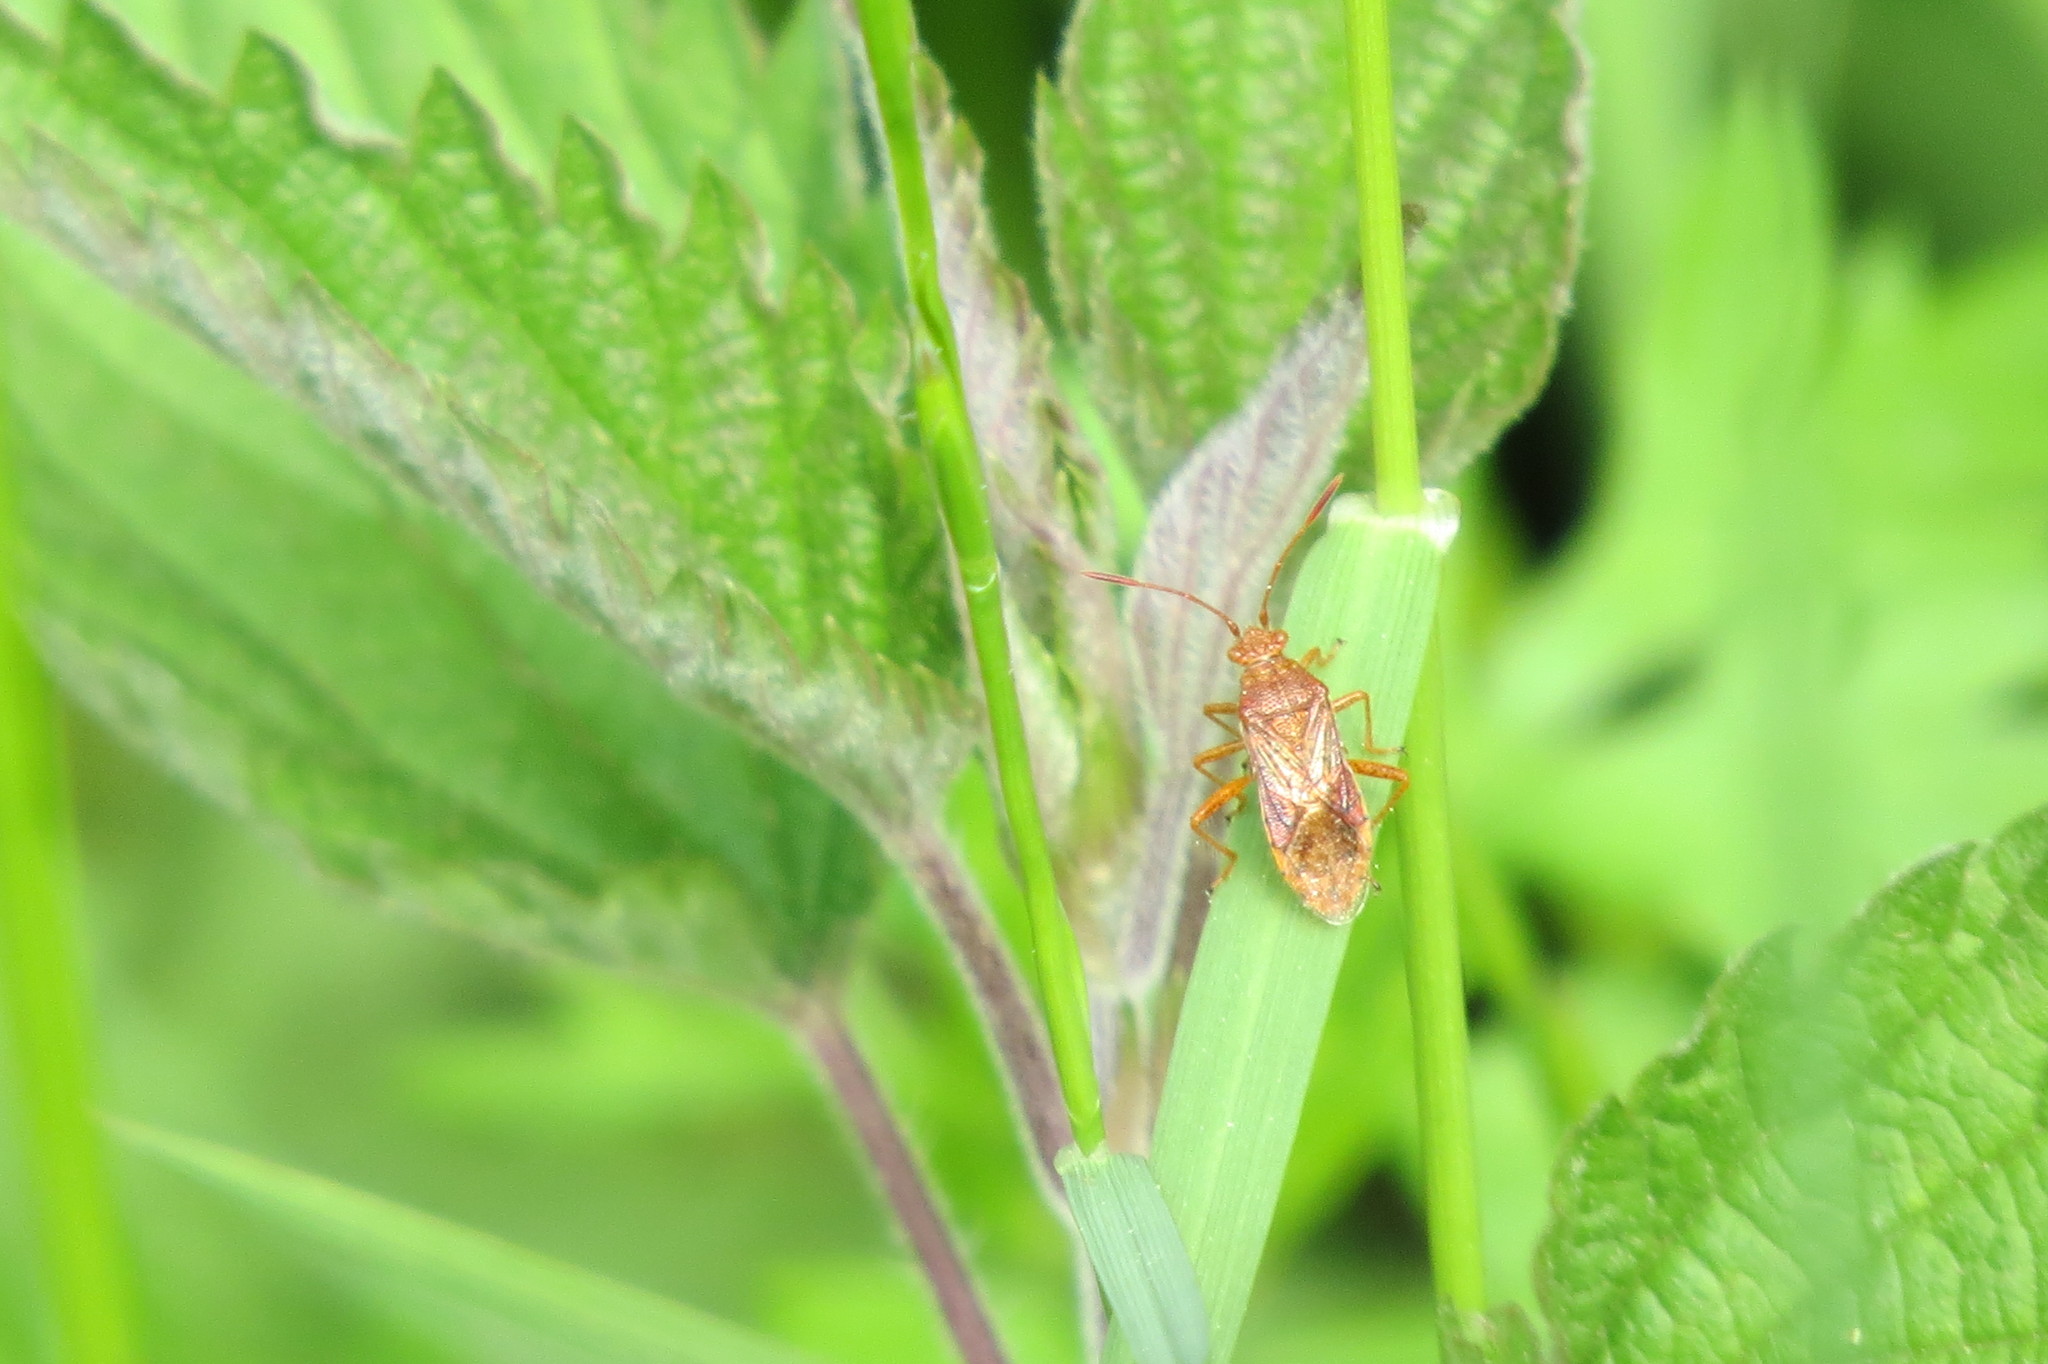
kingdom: Animalia
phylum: Arthropoda
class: Insecta
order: Hemiptera
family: Rhopalidae
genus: Rhopalus
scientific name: Rhopalus maculatus
